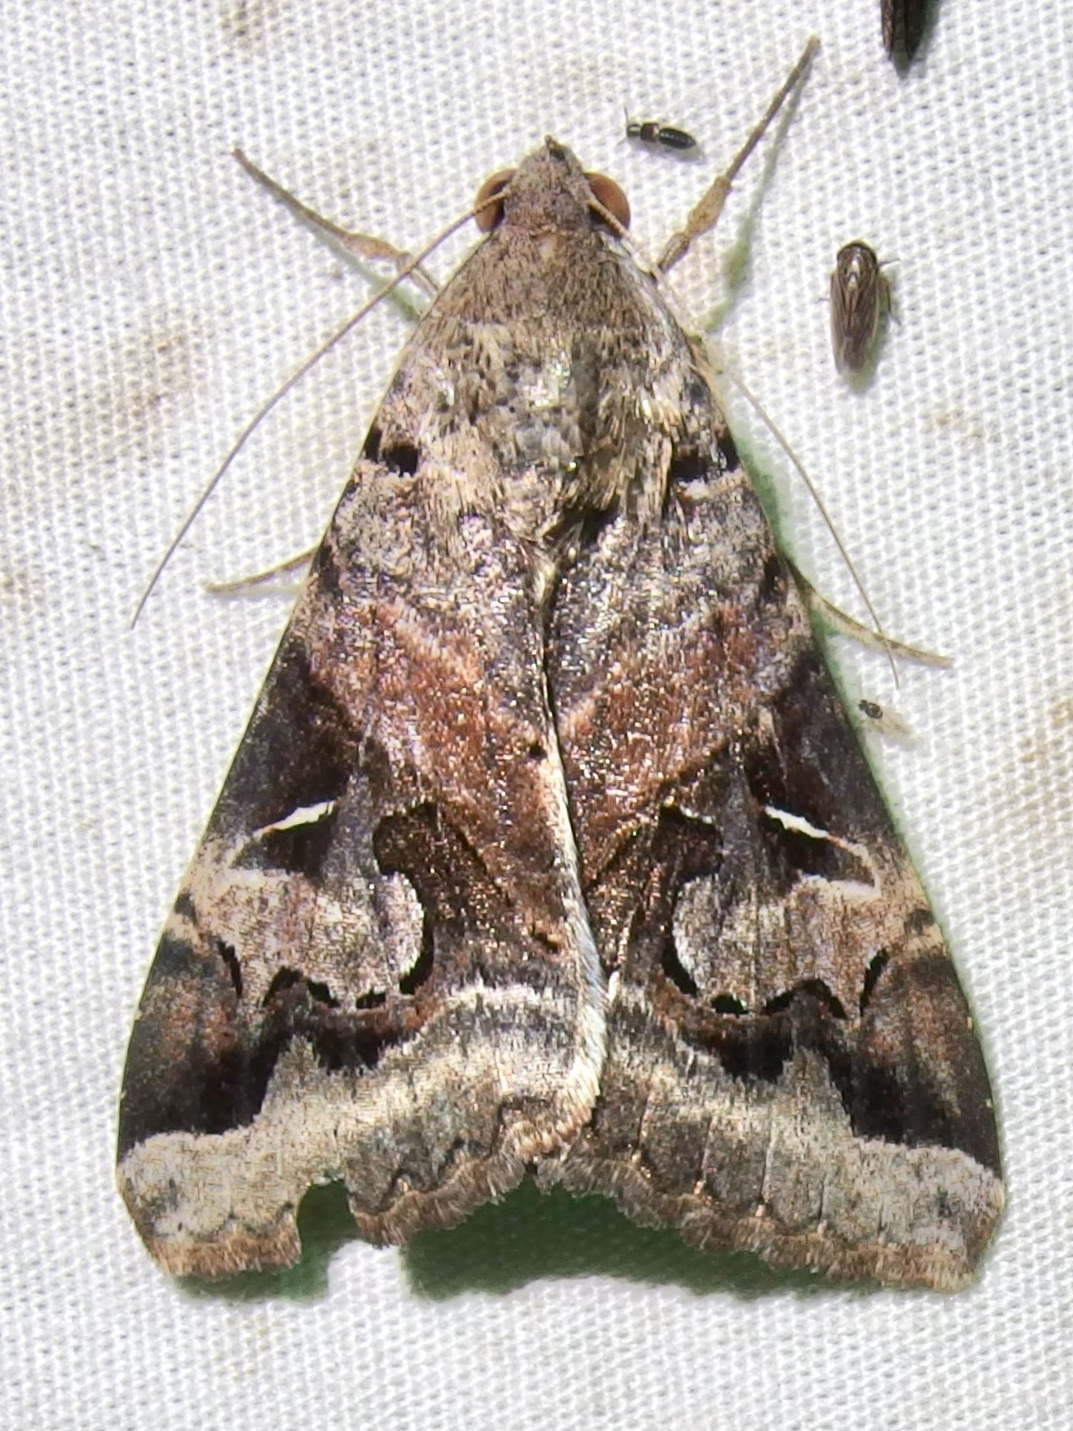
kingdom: Animalia
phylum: Arthropoda
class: Insecta
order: Lepidoptera
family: Erebidae
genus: Melipotis
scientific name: Melipotis indomita
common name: Moth
